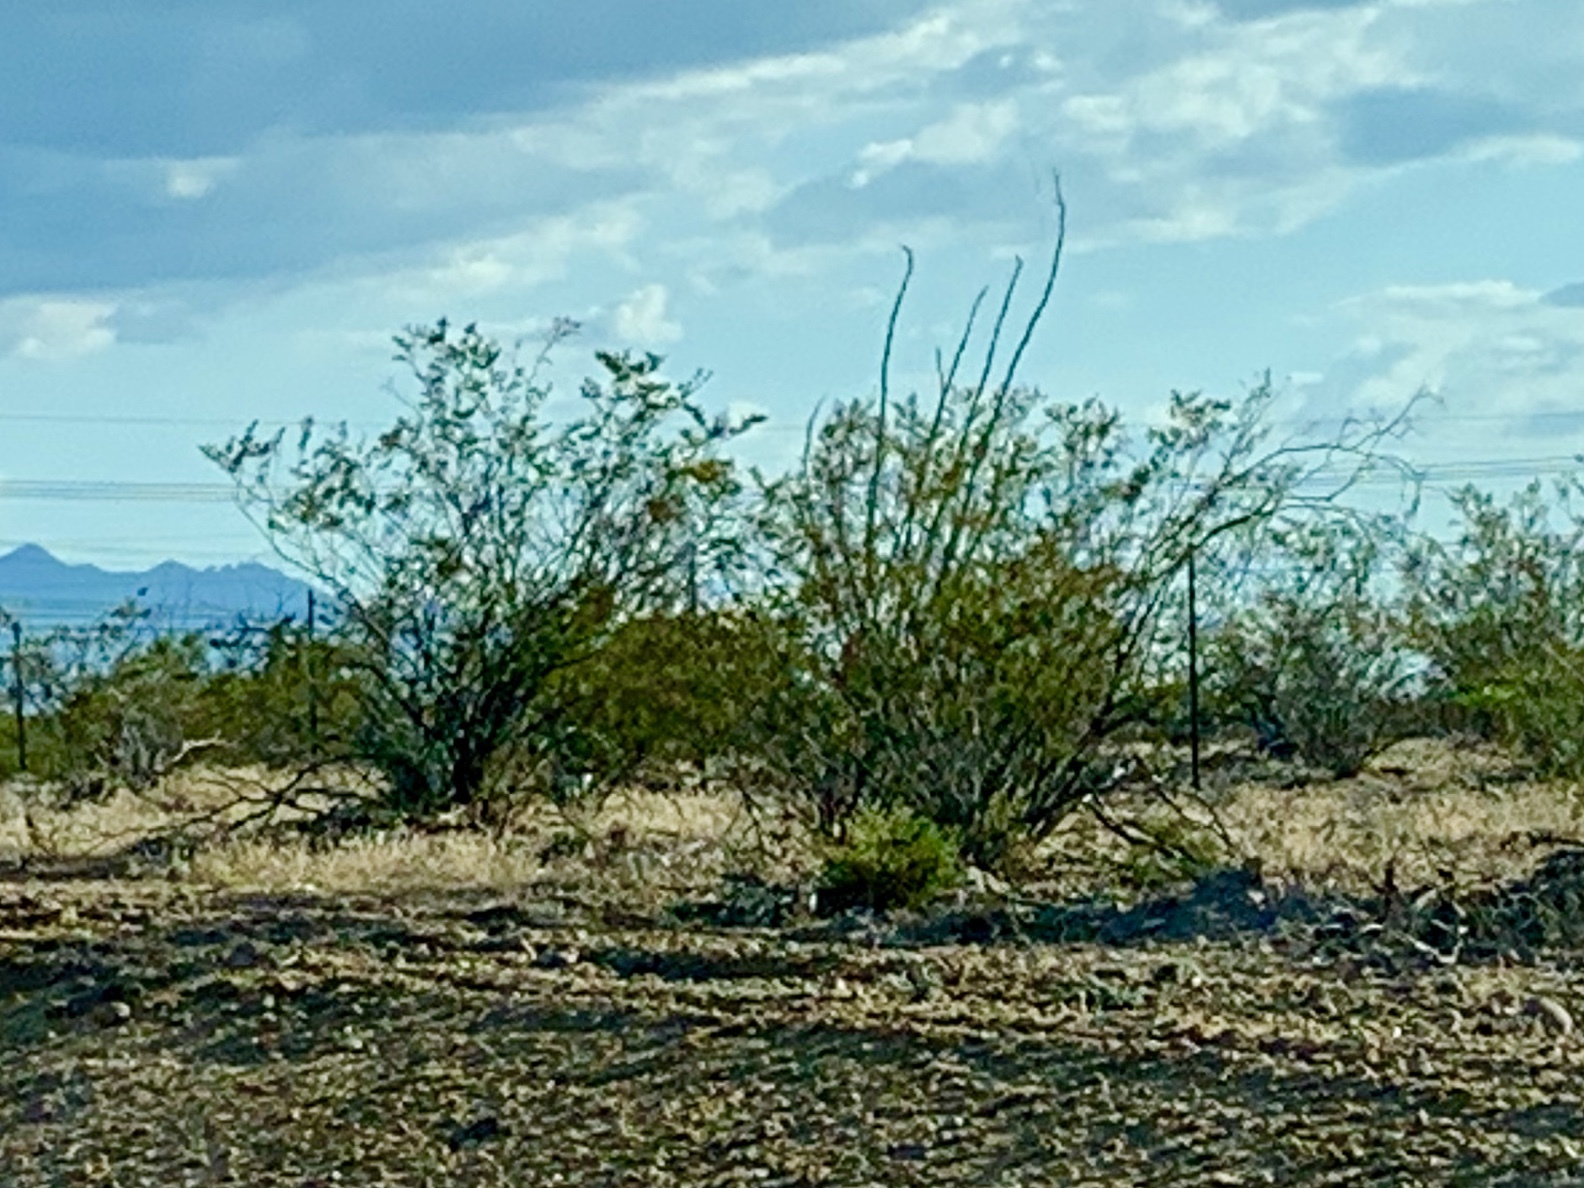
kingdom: Plantae
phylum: Tracheophyta
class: Magnoliopsida
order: Zygophyllales
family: Zygophyllaceae
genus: Larrea
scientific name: Larrea tridentata
